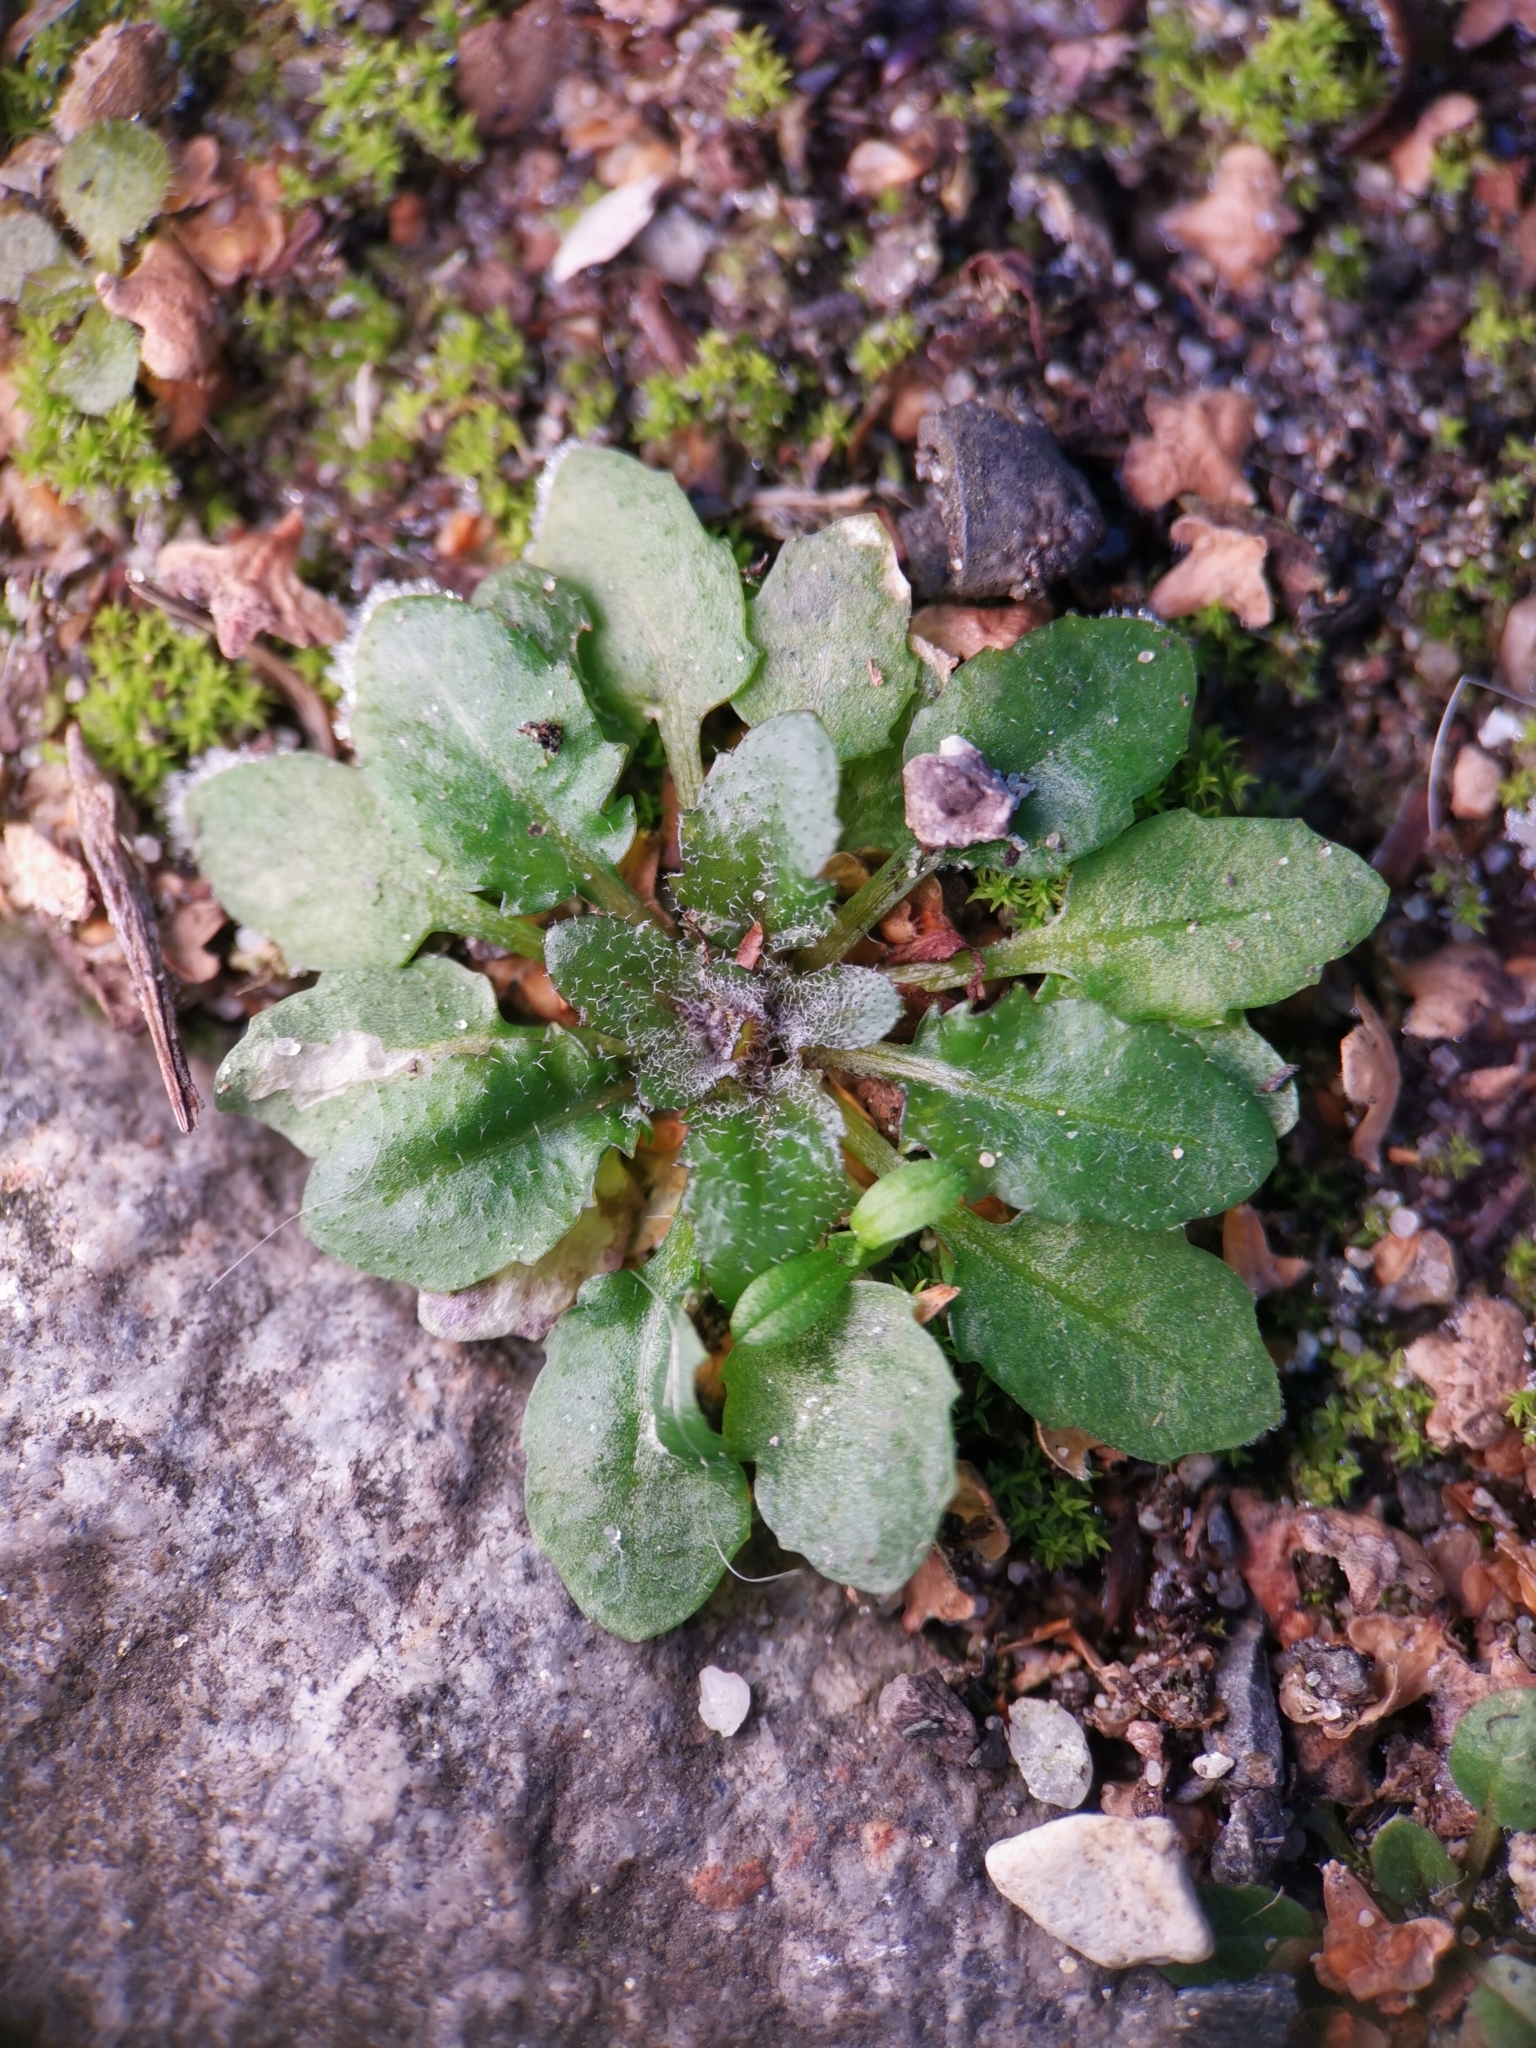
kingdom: Plantae
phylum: Tracheophyta
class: Magnoliopsida
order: Brassicales
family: Brassicaceae
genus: Arabidopsis
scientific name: Arabidopsis thaliana
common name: Thale cress
